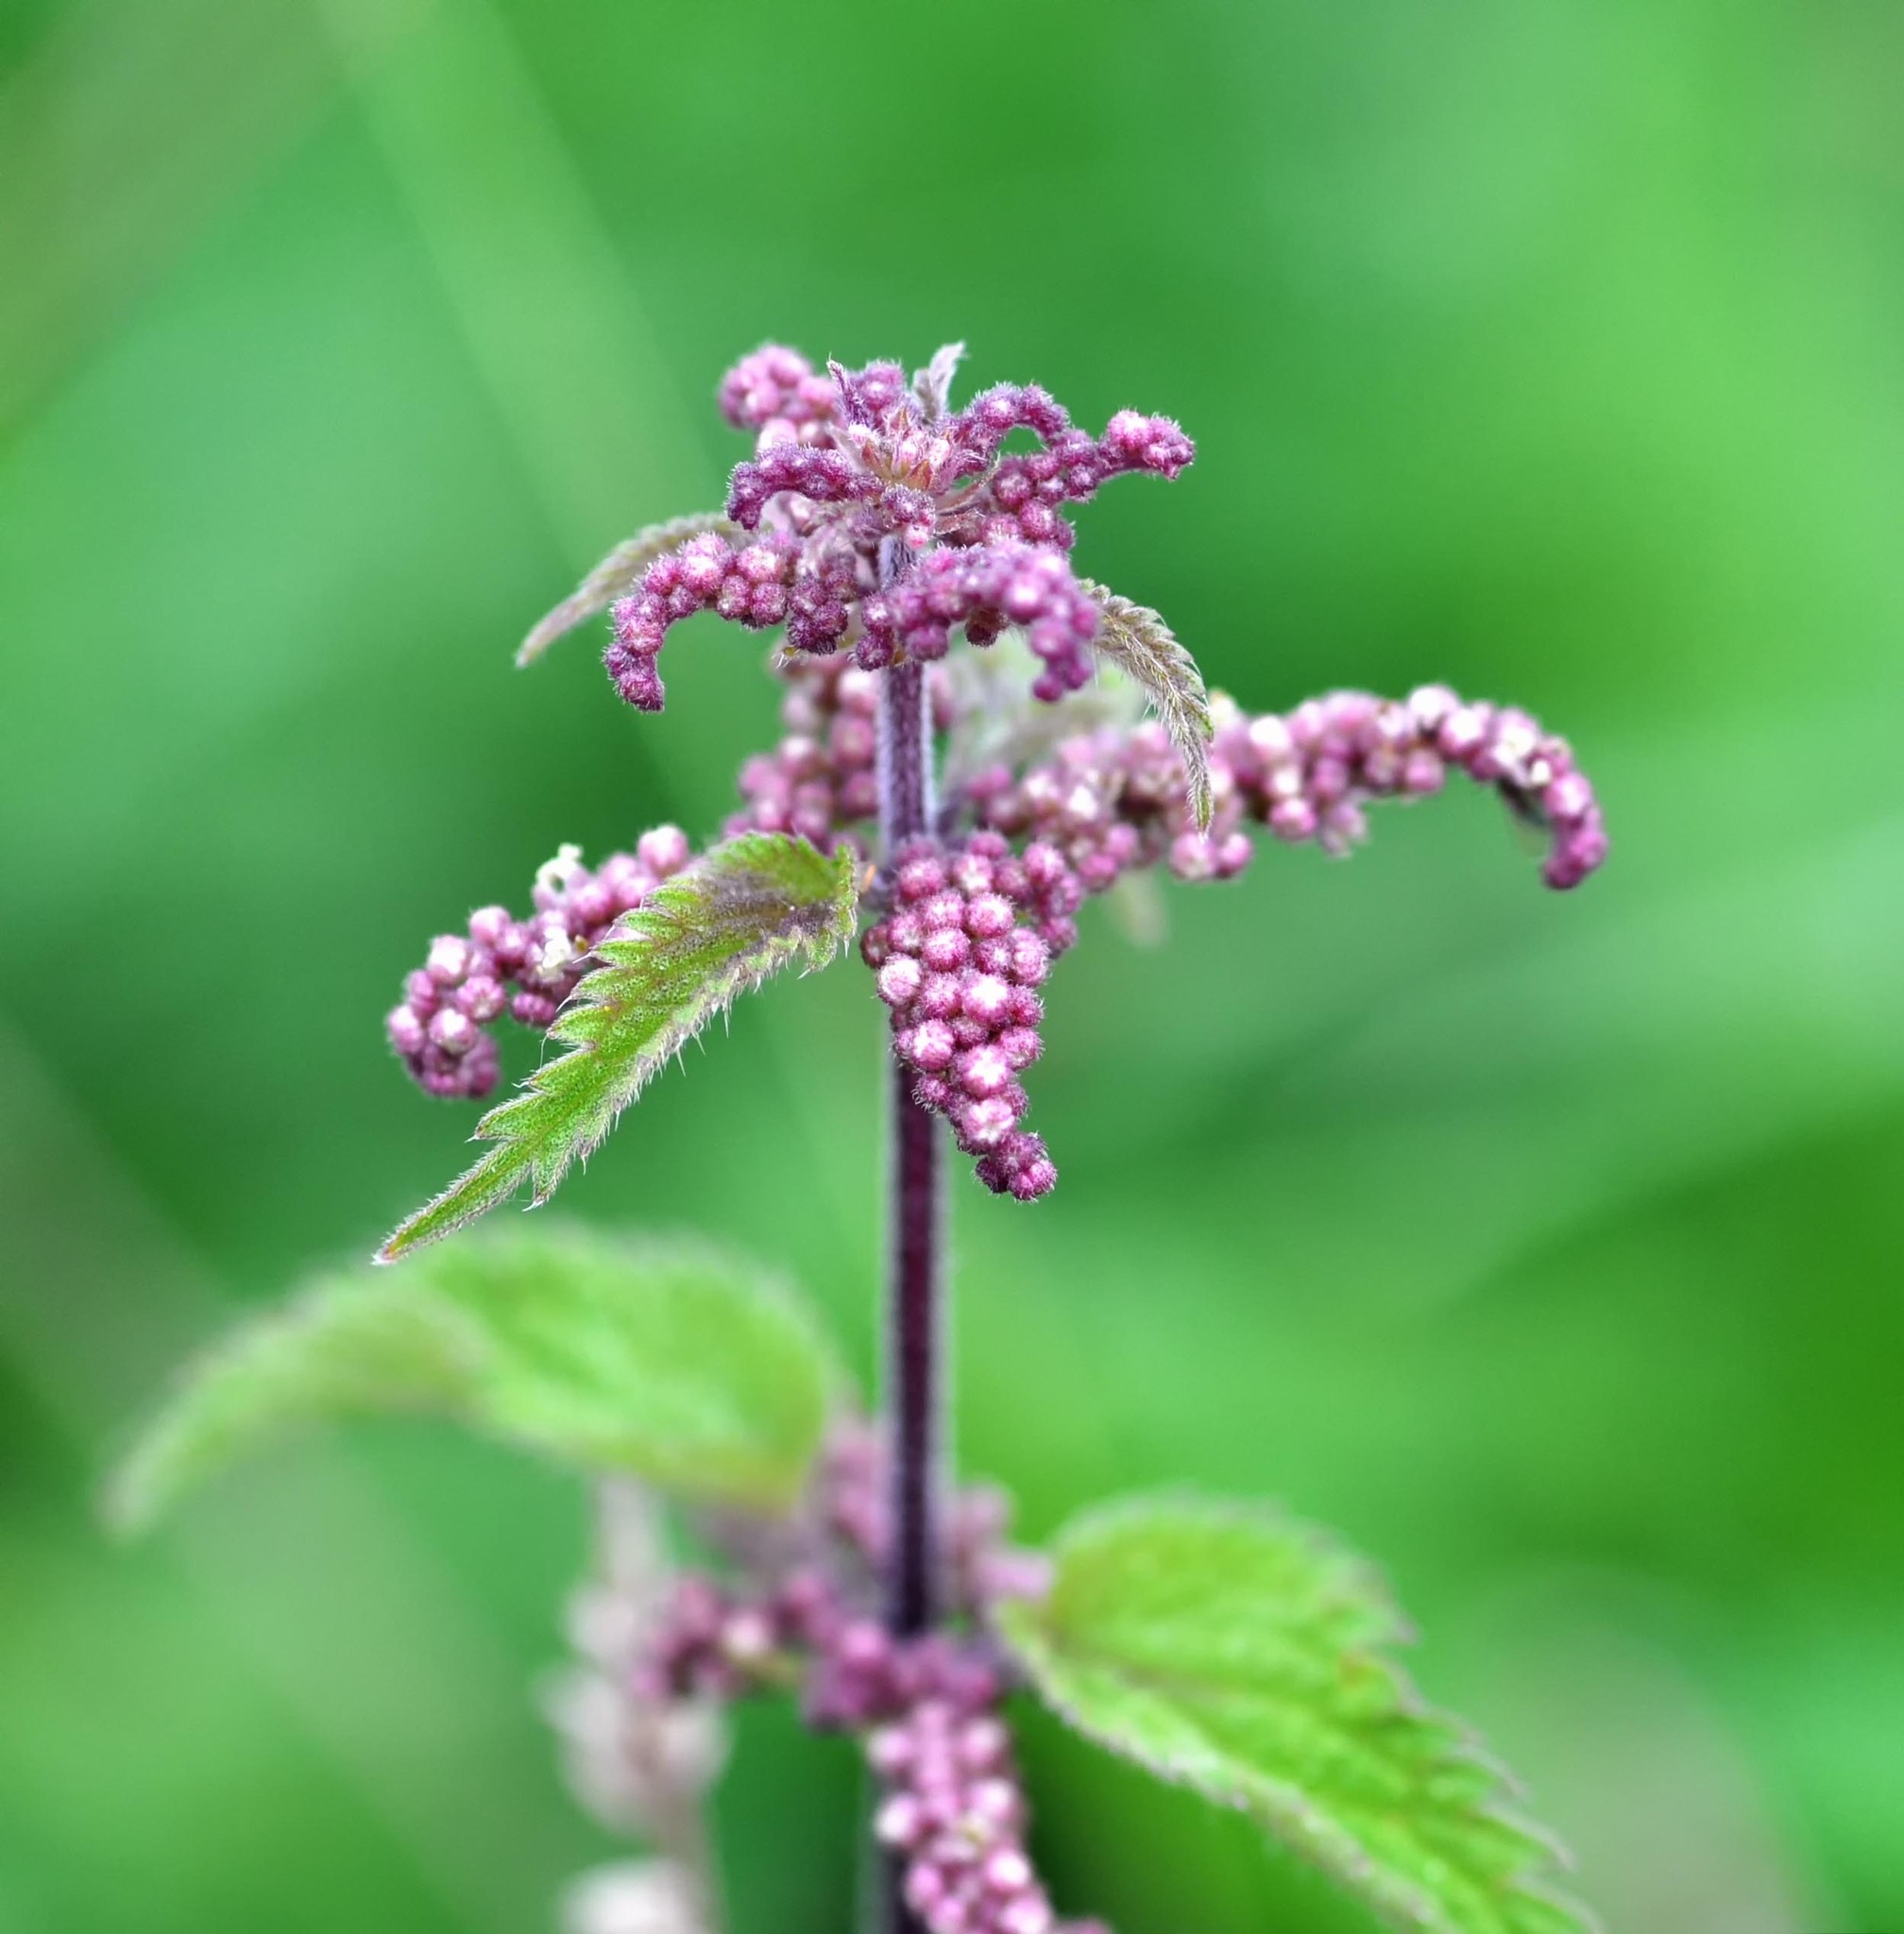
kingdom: Plantae
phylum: Tracheophyta
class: Magnoliopsida
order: Rosales
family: Urticaceae
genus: Urtica
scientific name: Urtica dioica
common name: Common nettle
